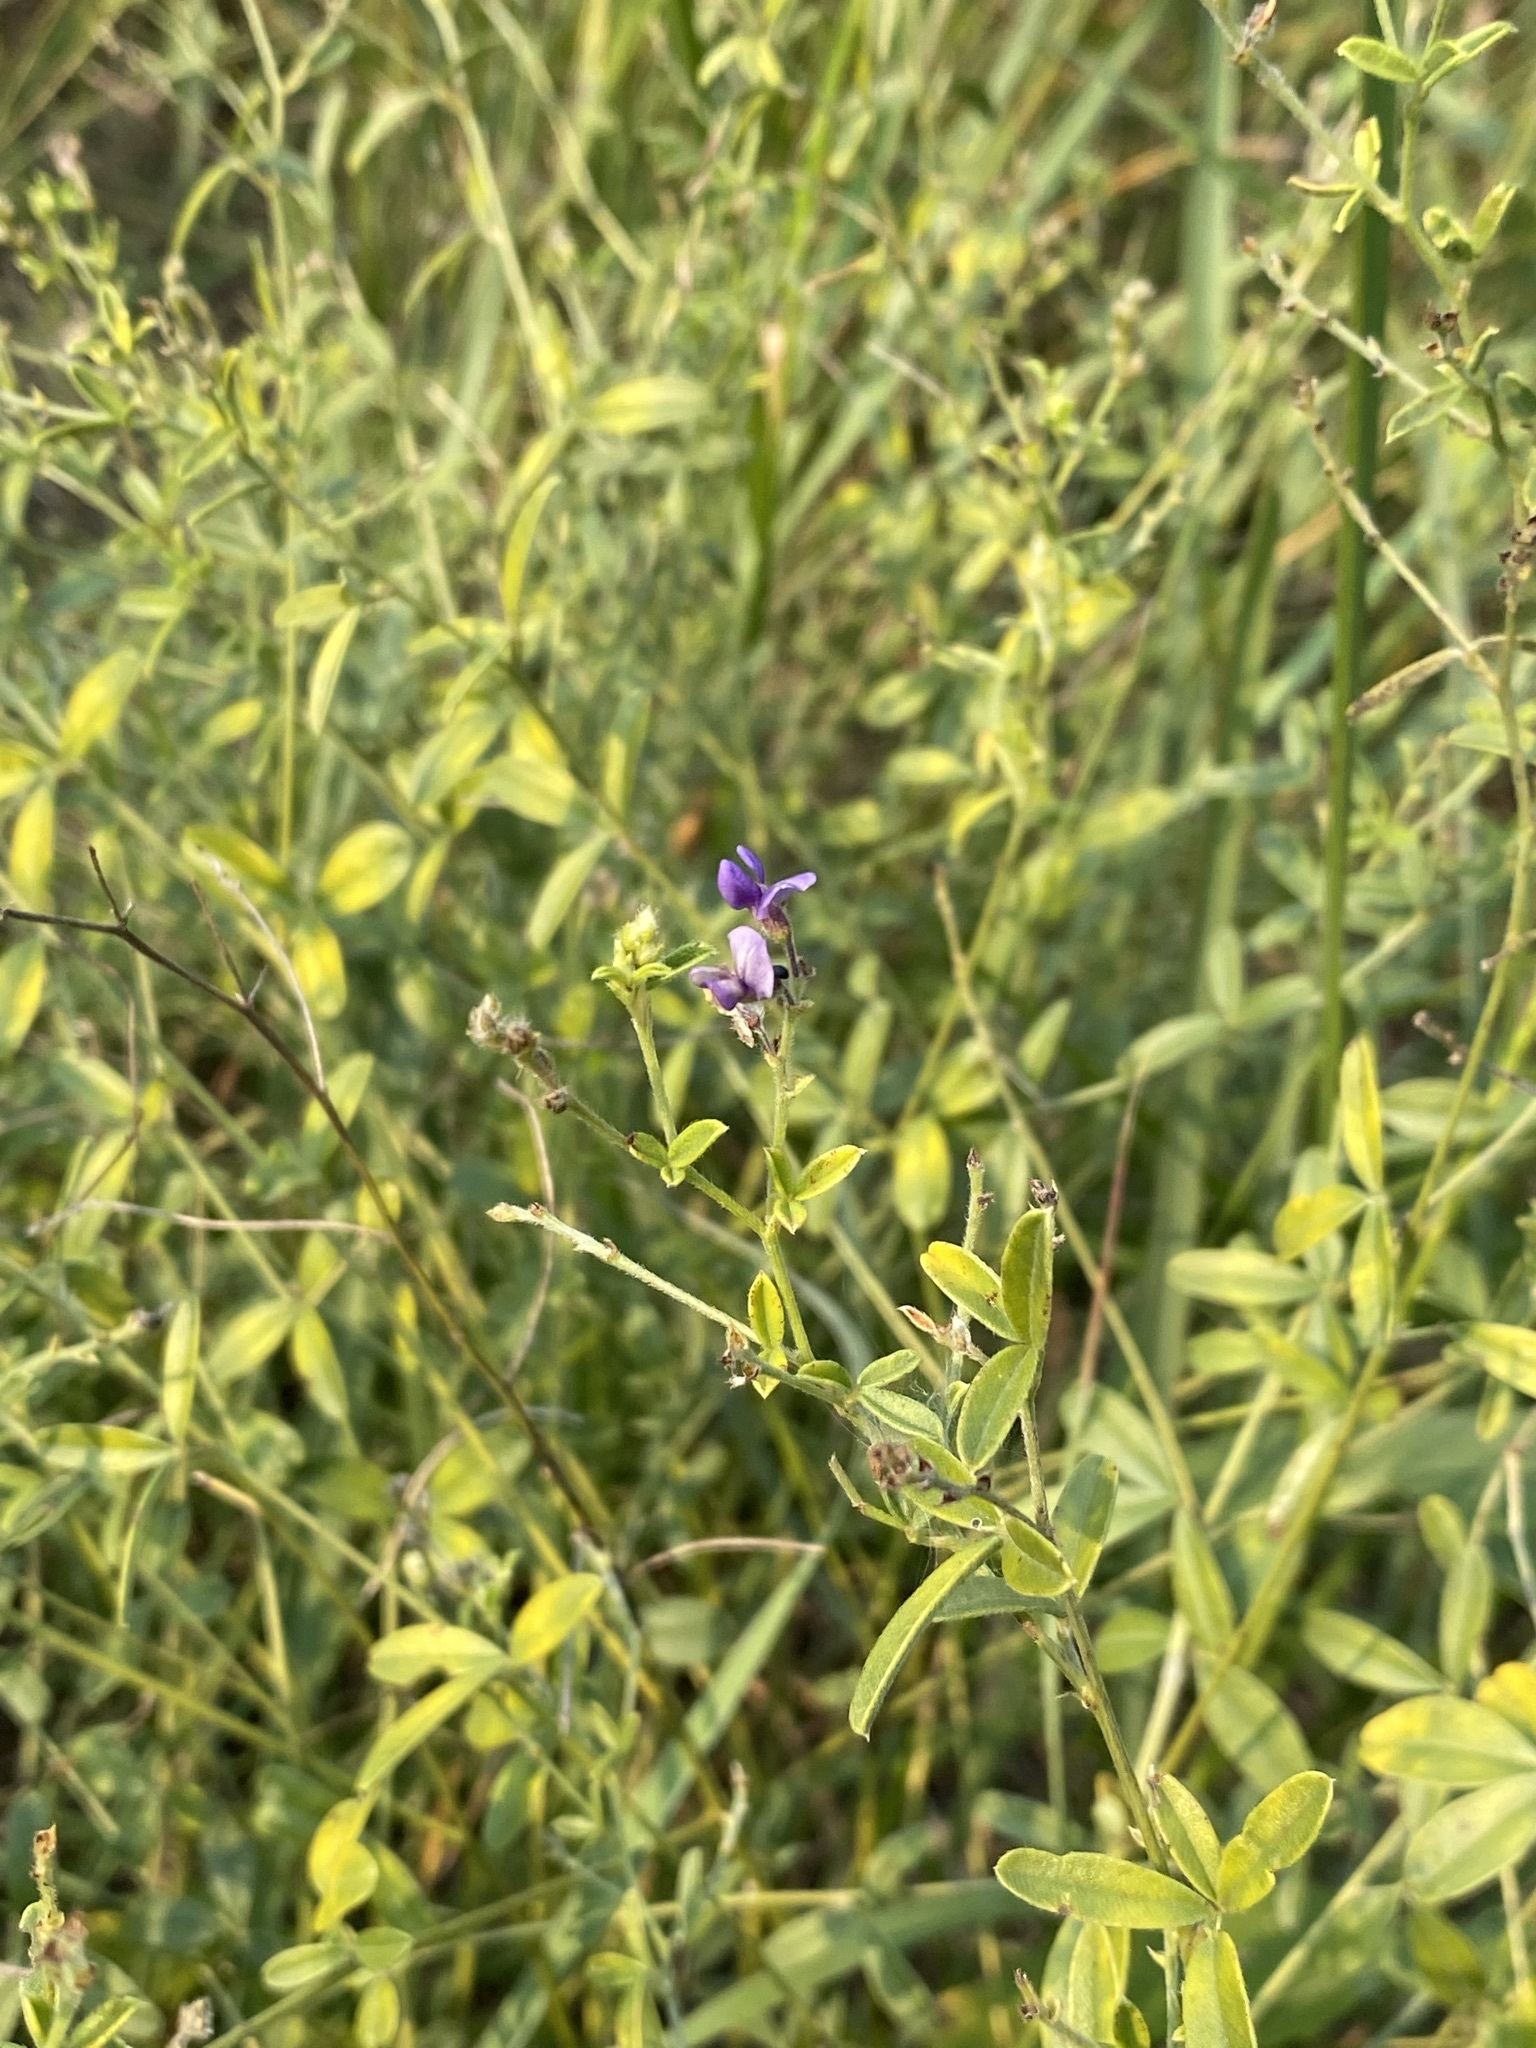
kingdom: Plantae
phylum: Tracheophyta
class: Magnoliopsida
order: Fabales
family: Fabaceae
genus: Pediomelum
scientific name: Pediomelum tenuiflorum
